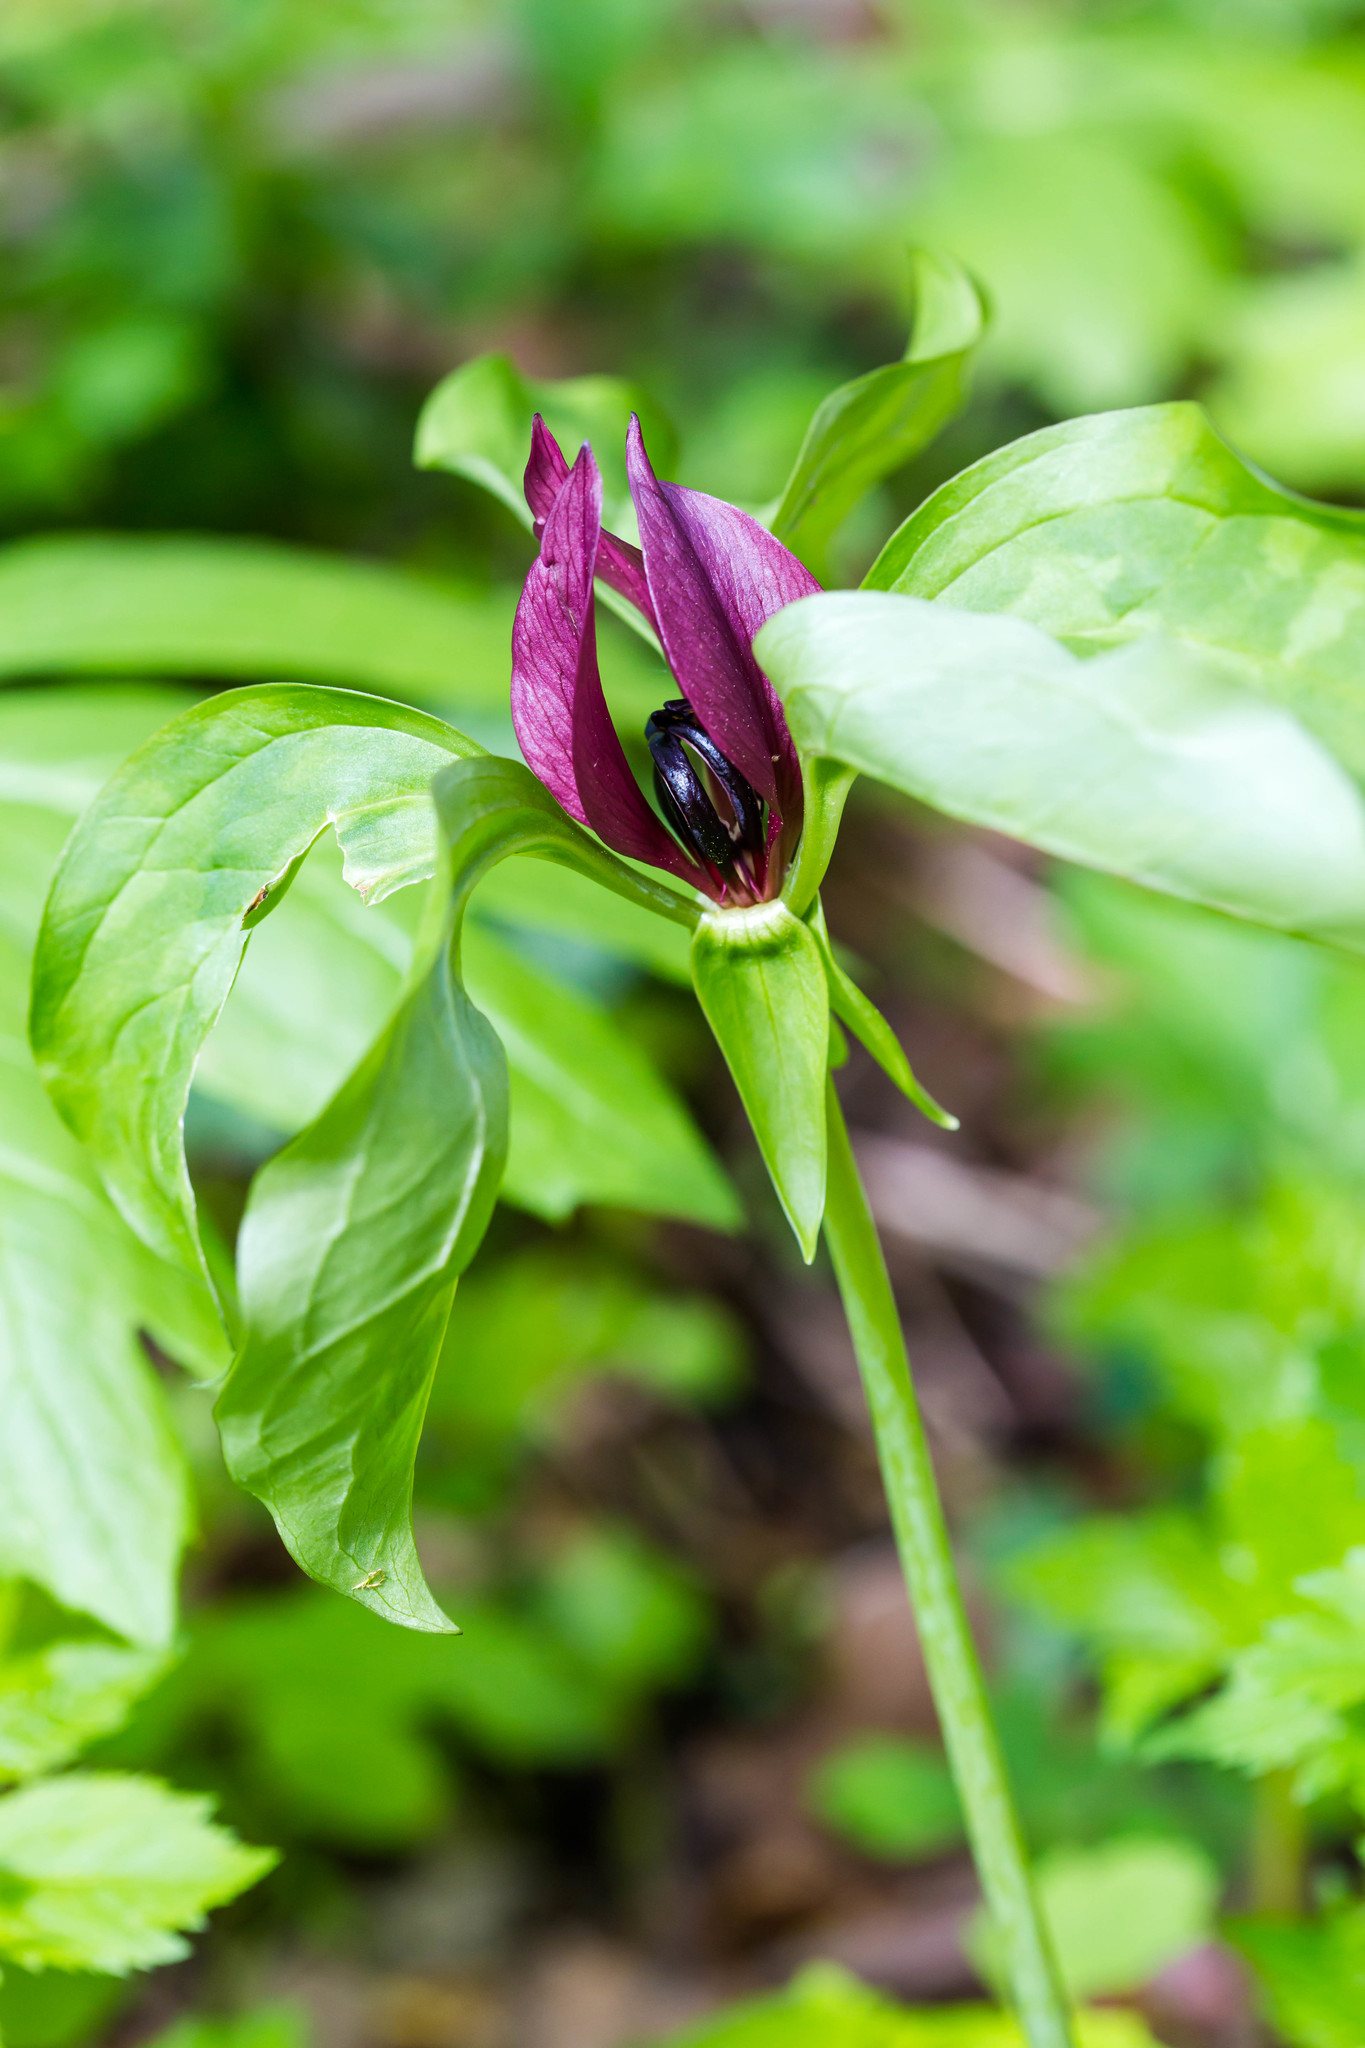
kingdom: Plantae
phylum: Tracheophyta
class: Liliopsida
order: Liliales
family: Melanthiaceae
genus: Trillium
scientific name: Trillium recurvatum
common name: Bloody butcher
